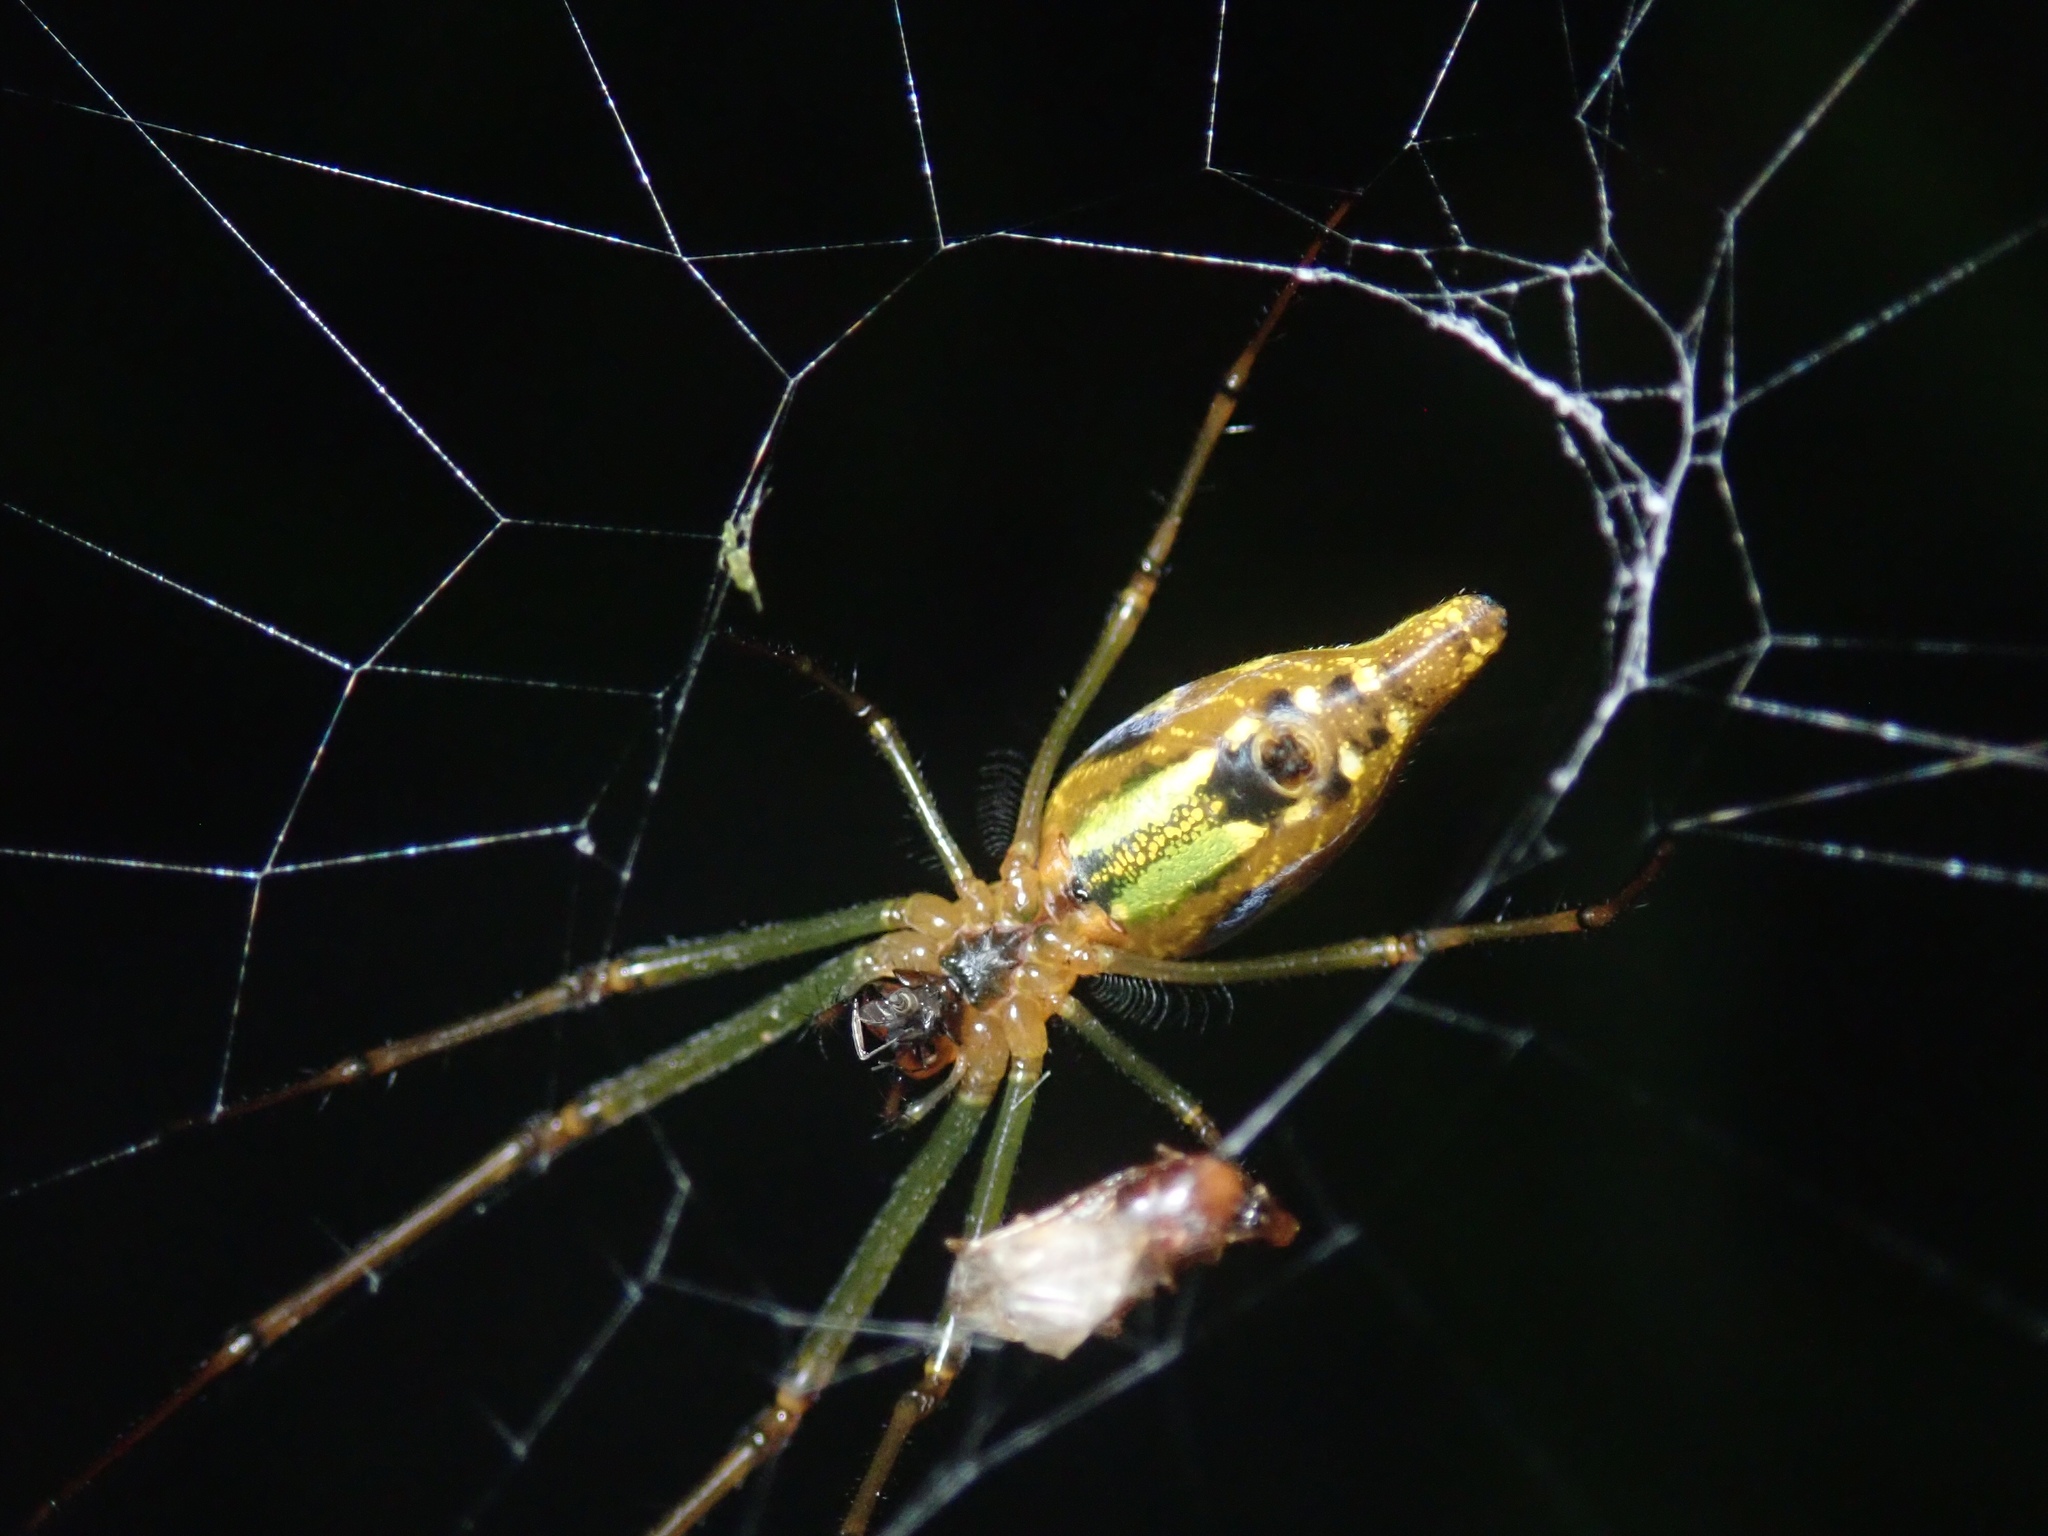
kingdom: Animalia
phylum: Arthropoda
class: Arachnida
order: Araneae
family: Tetragnathidae
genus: Leucauge
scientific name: Leucauge decorata
